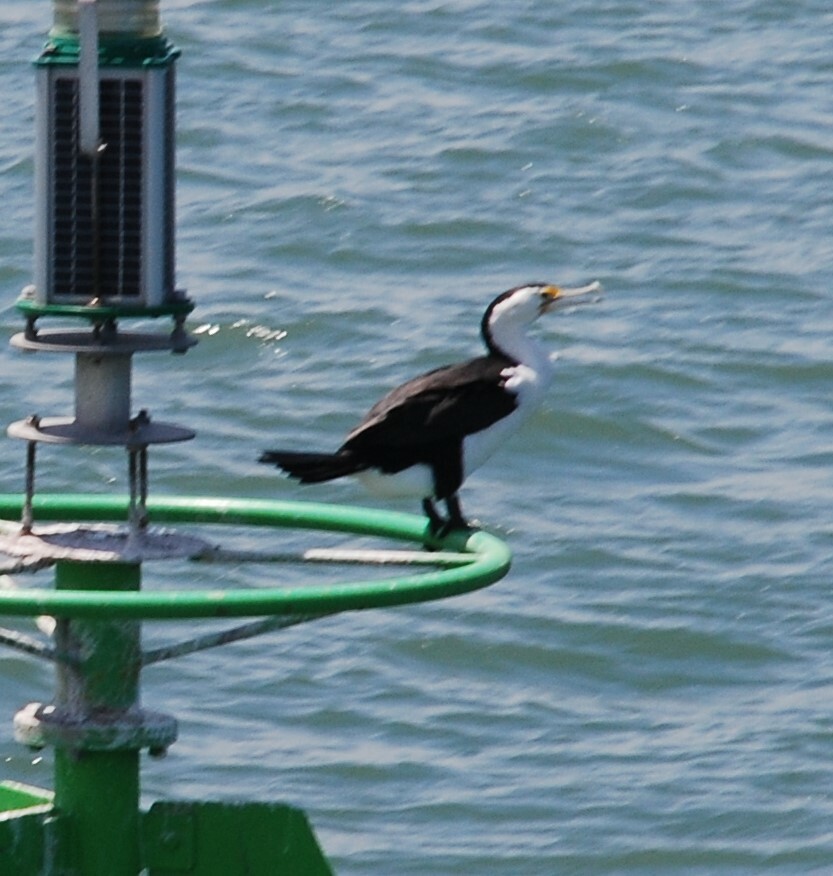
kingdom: Animalia
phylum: Chordata
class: Aves
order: Suliformes
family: Phalacrocoracidae
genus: Phalacrocorax
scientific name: Phalacrocorax varius
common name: Pied cormorant
